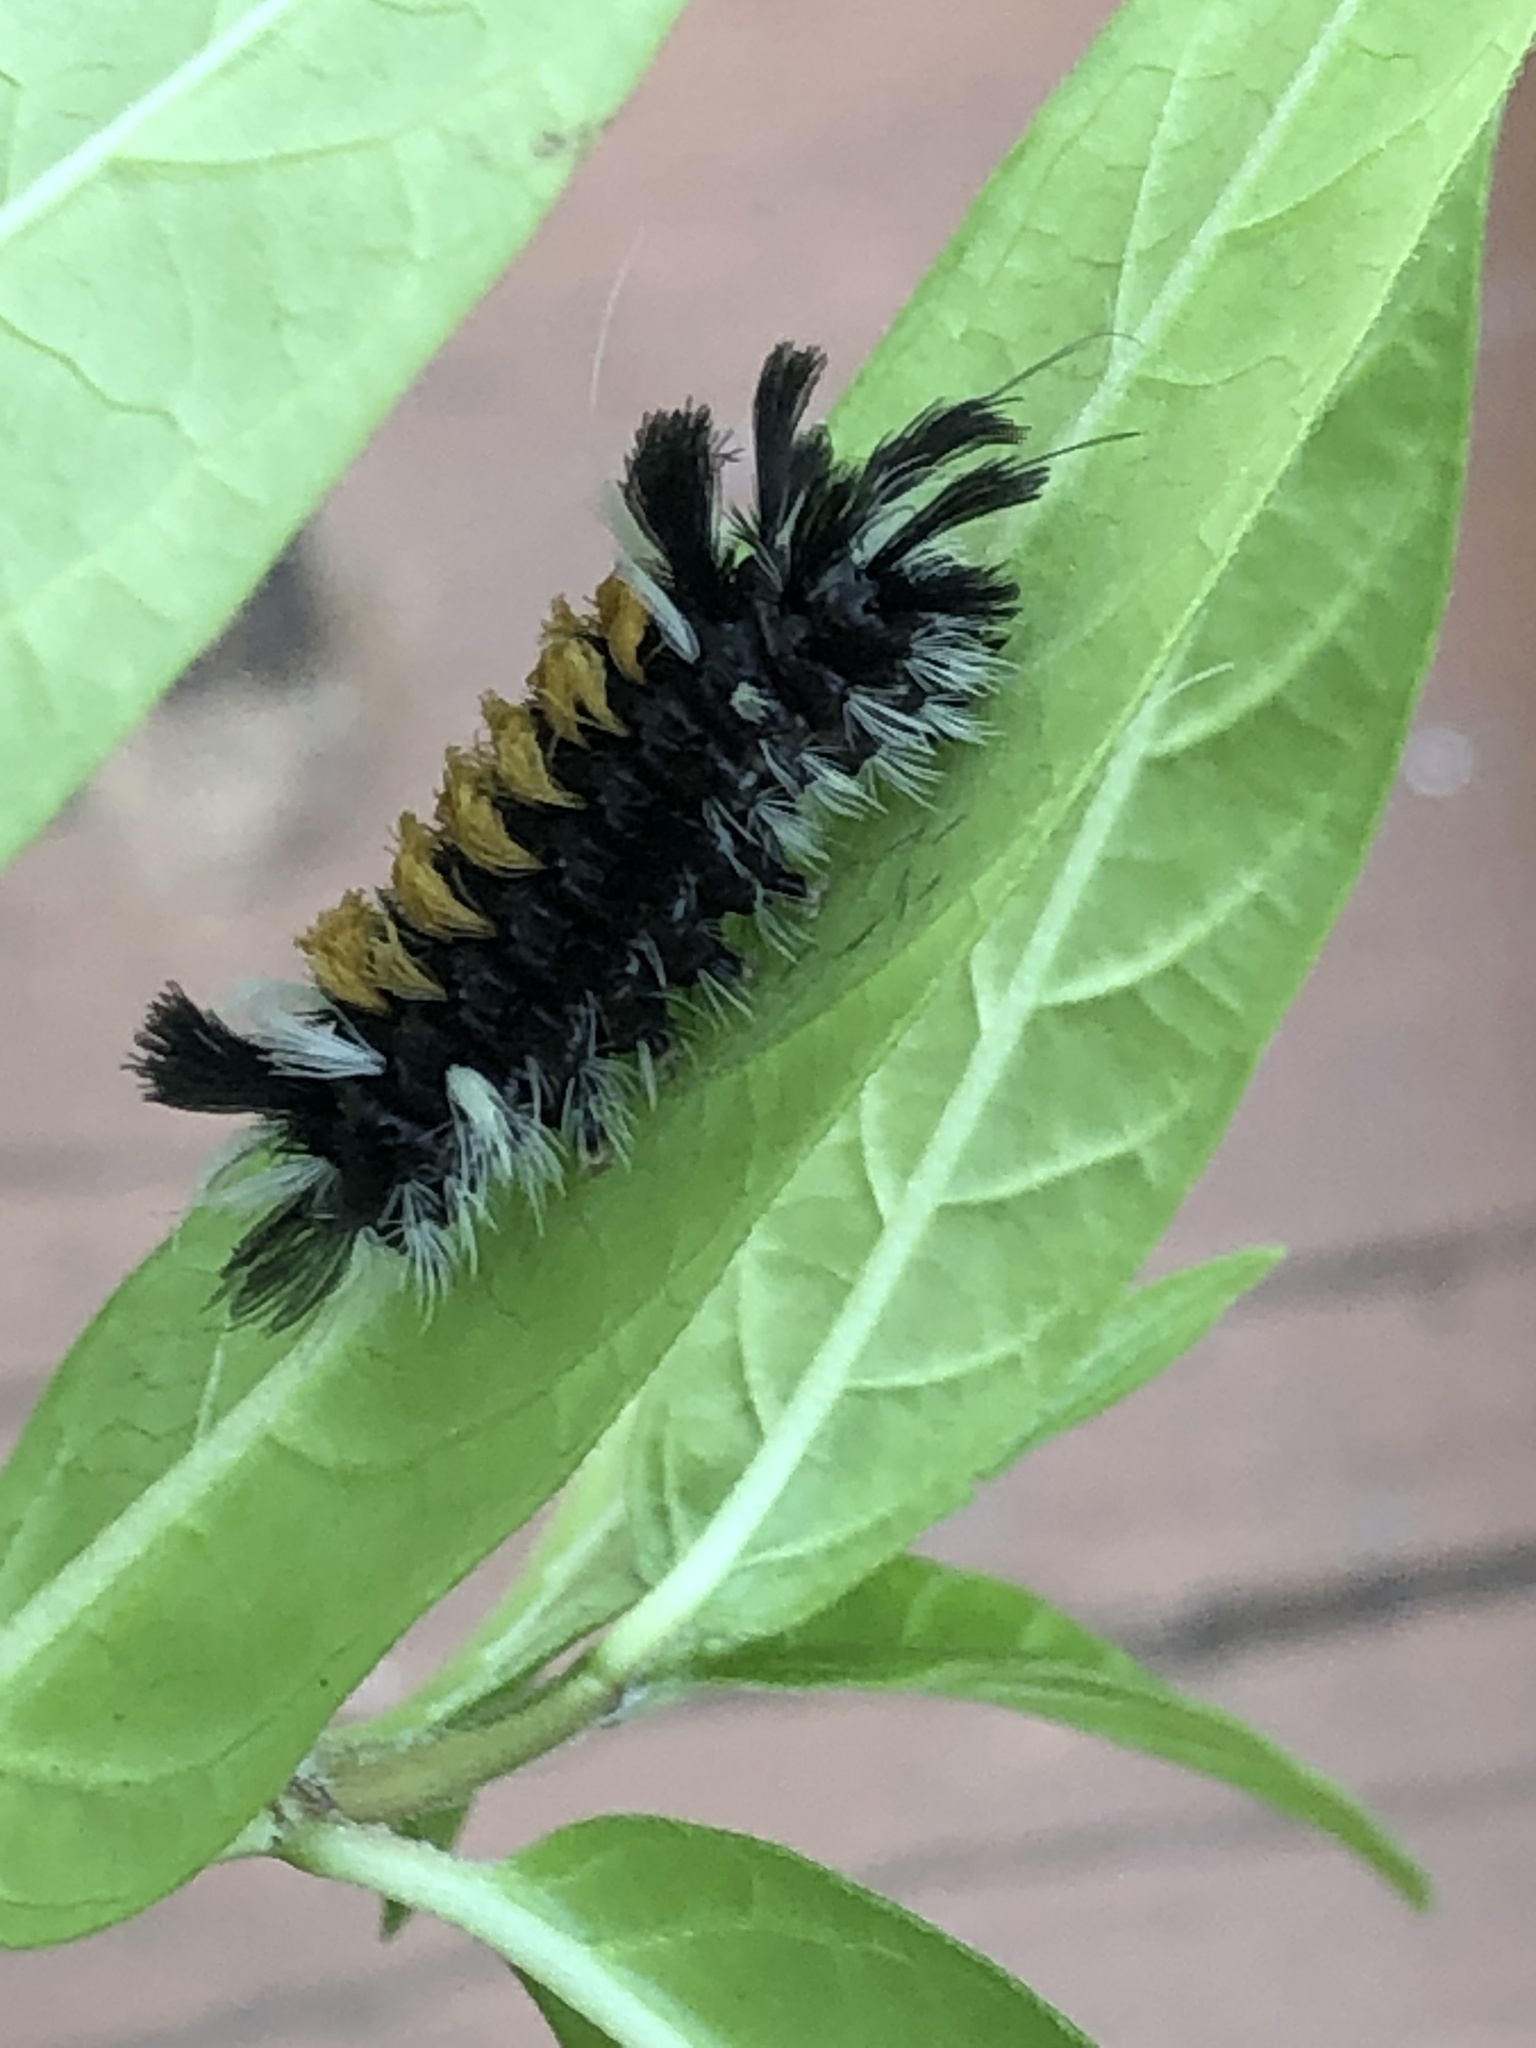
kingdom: Animalia
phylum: Arthropoda
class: Insecta
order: Lepidoptera
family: Erebidae
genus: Euchaetes
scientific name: Euchaetes egle
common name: Milkweed tussock moth
